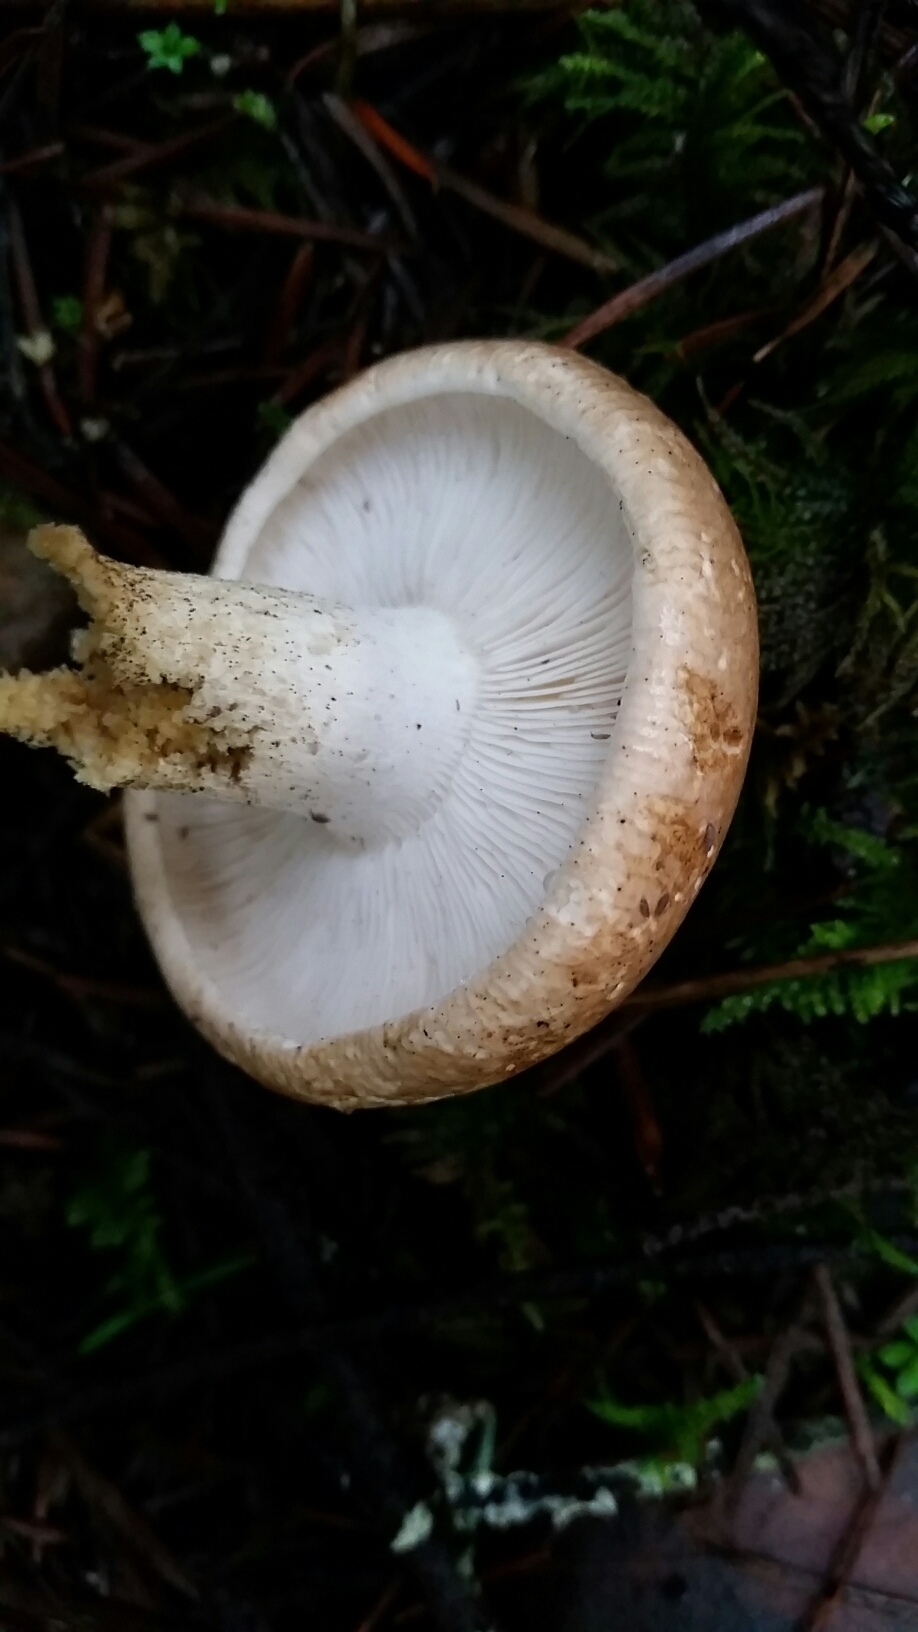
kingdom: Fungi
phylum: Basidiomycota
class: Agaricomycetes
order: Agaricales
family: Tricholomataceae
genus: Leucopaxillus
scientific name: Leucopaxillus gentianeus
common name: Bitter funnel
